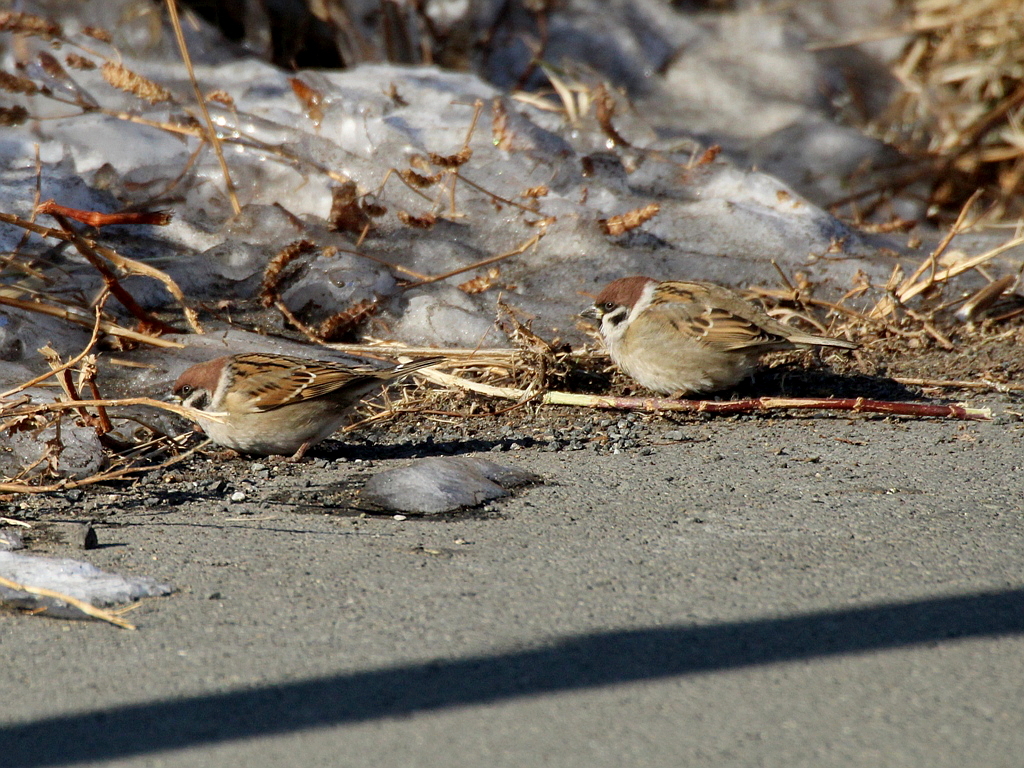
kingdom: Animalia
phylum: Chordata
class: Aves
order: Passeriformes
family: Passeridae
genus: Passer
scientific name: Passer montanus
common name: Eurasian tree sparrow
